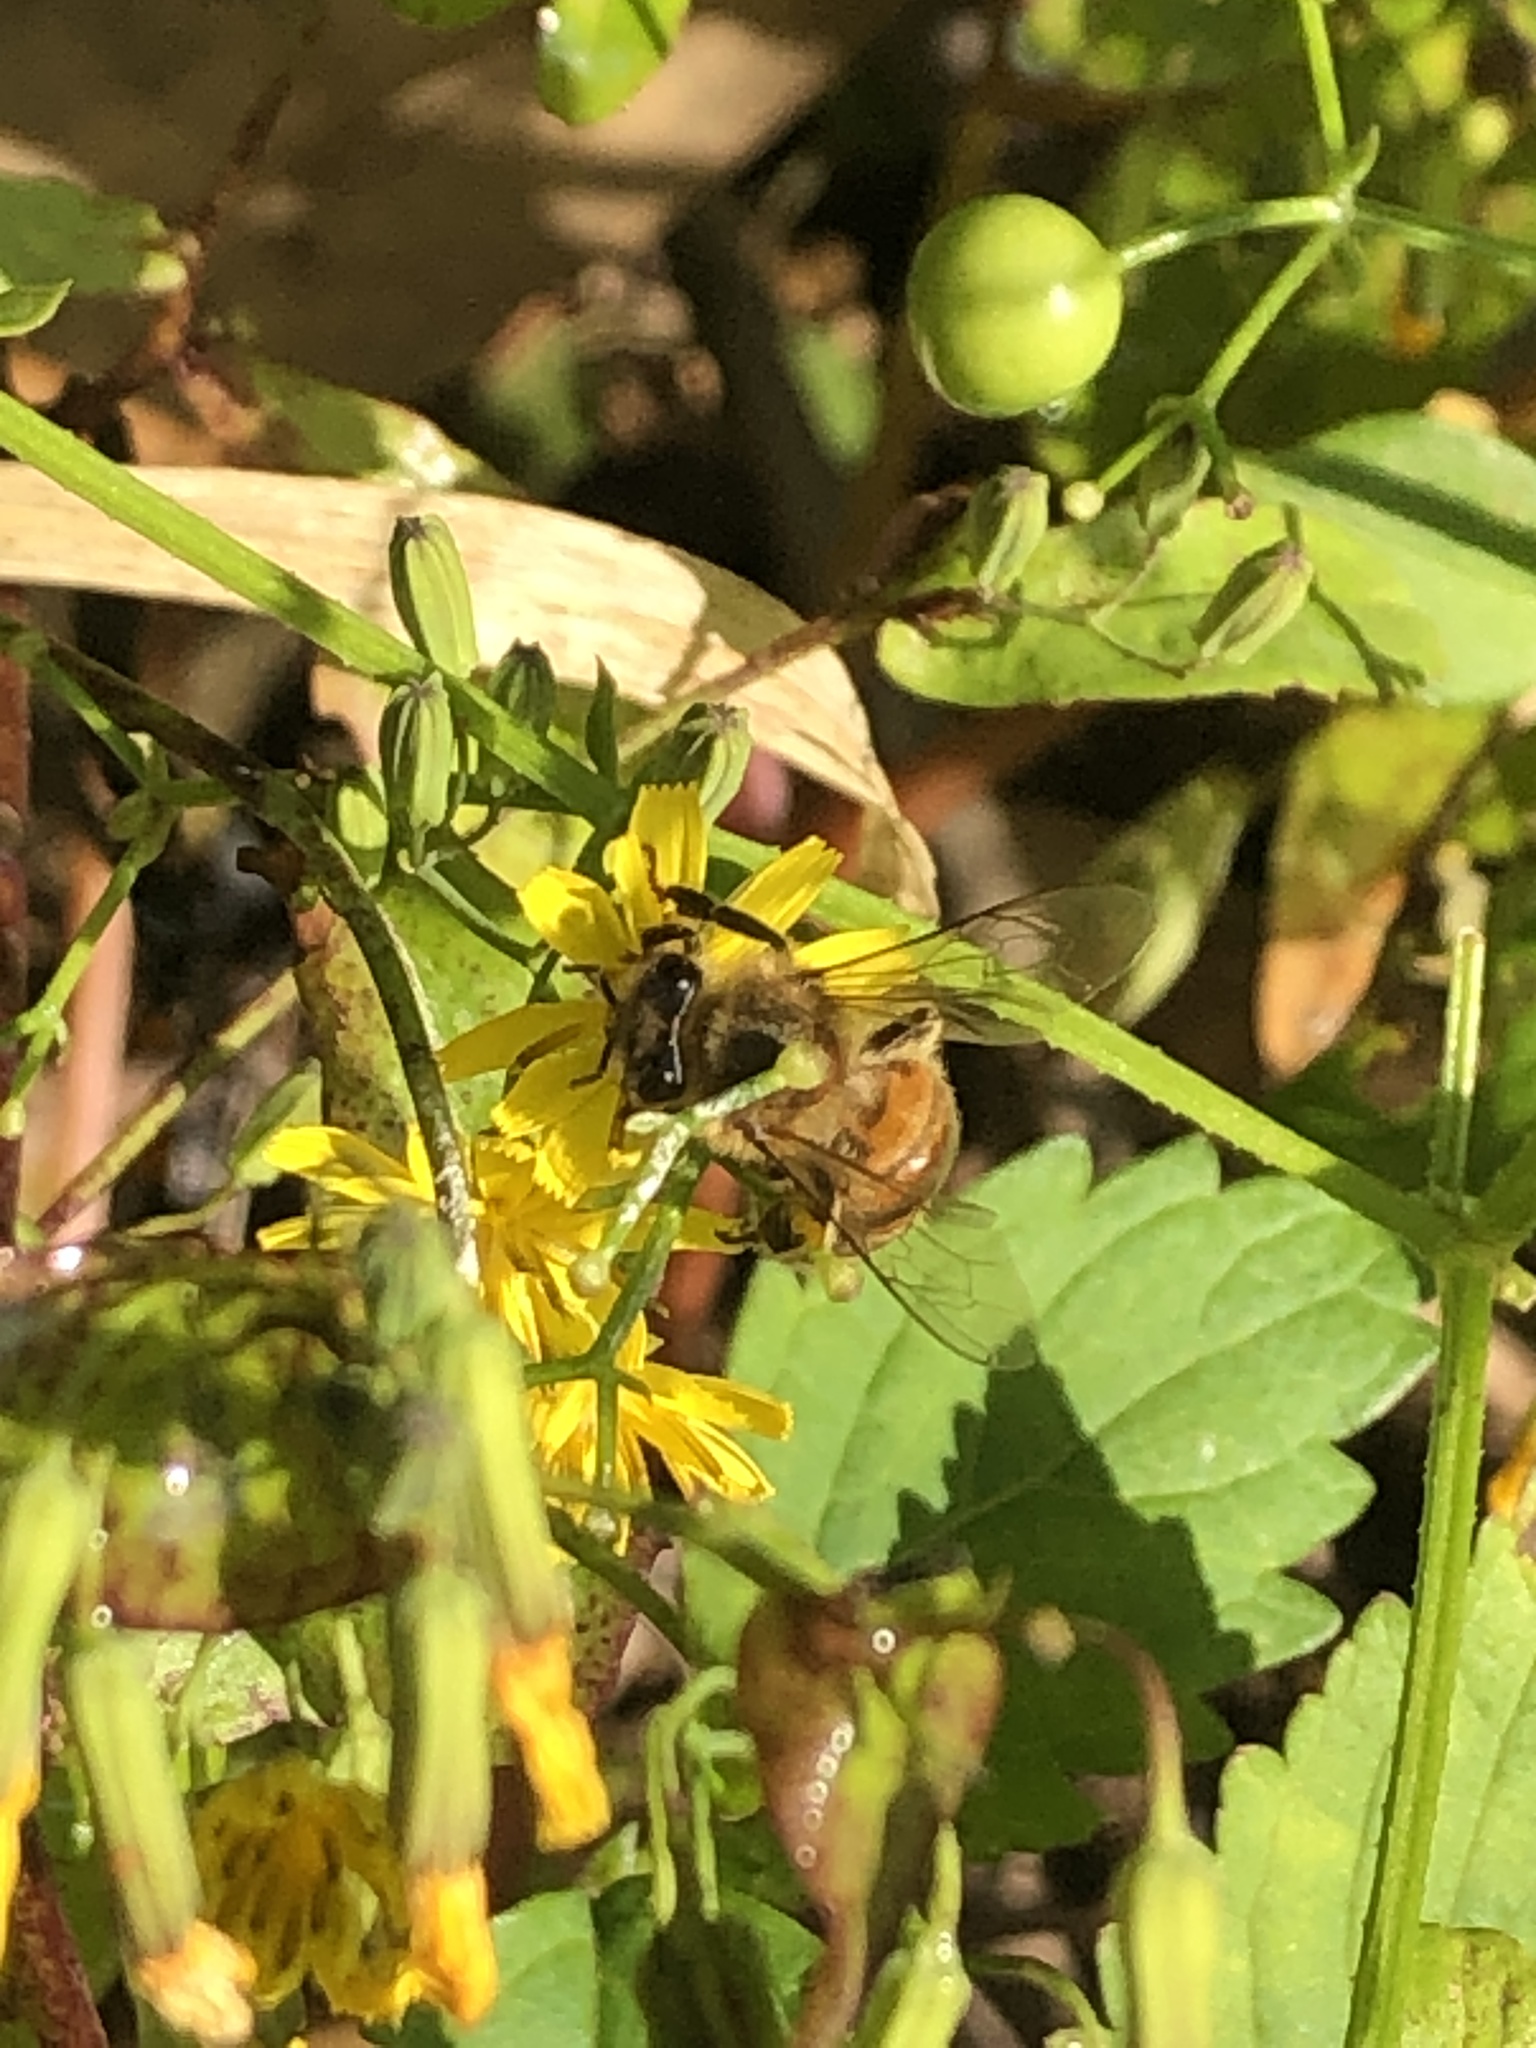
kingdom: Animalia
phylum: Arthropoda
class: Insecta
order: Hymenoptera
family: Apidae
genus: Apis
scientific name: Apis mellifera
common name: Honey bee
